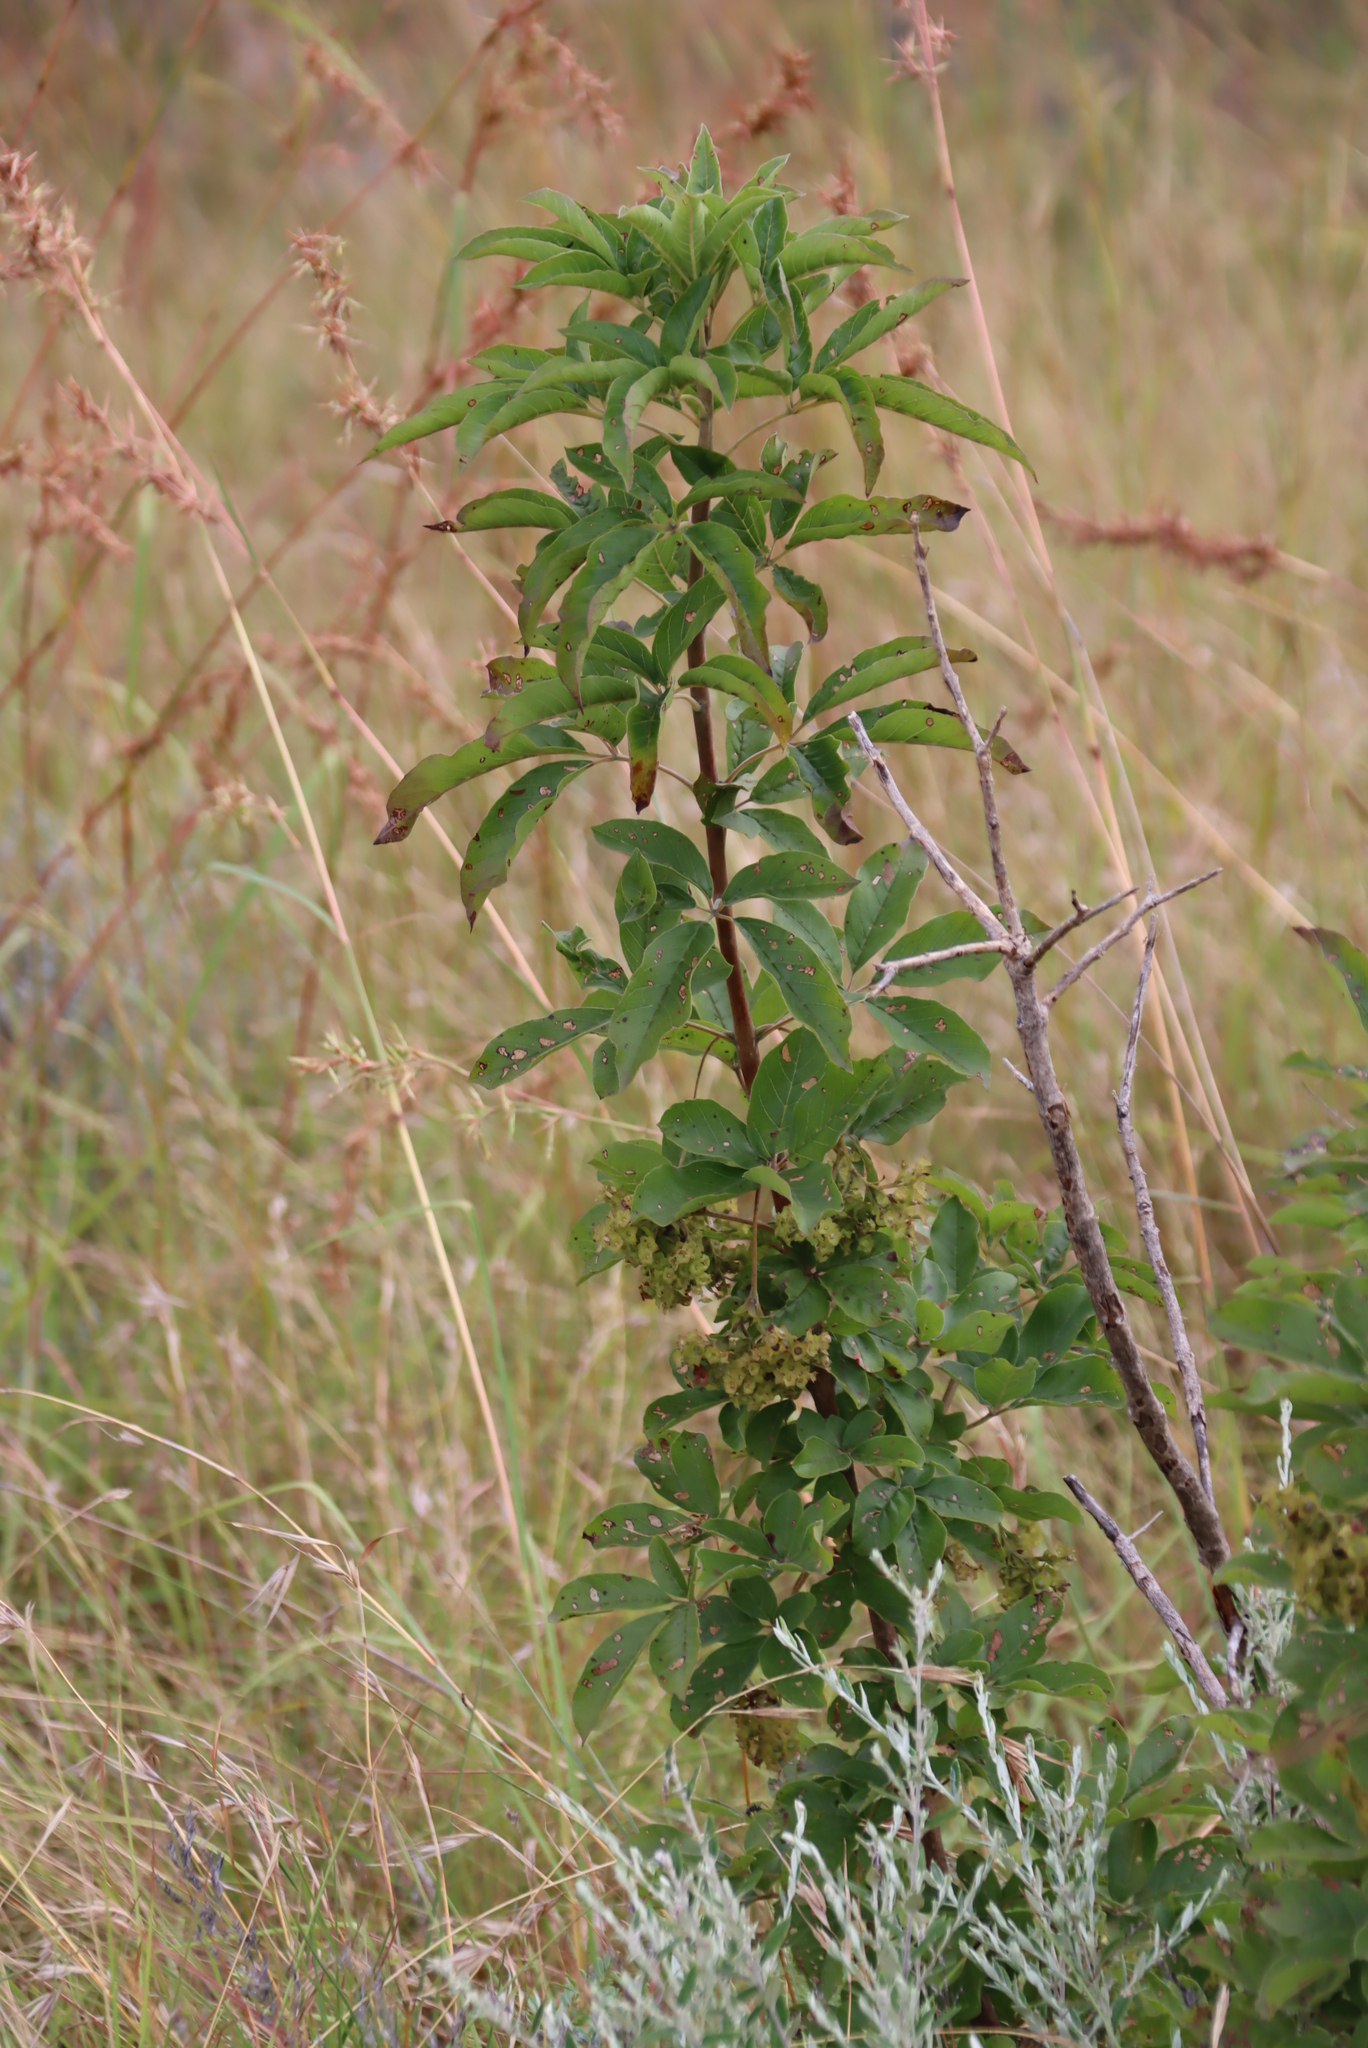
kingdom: Plantae
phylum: Tracheophyta
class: Magnoliopsida
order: Lamiales
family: Lamiaceae
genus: Vitex
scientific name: Vitex obovata
